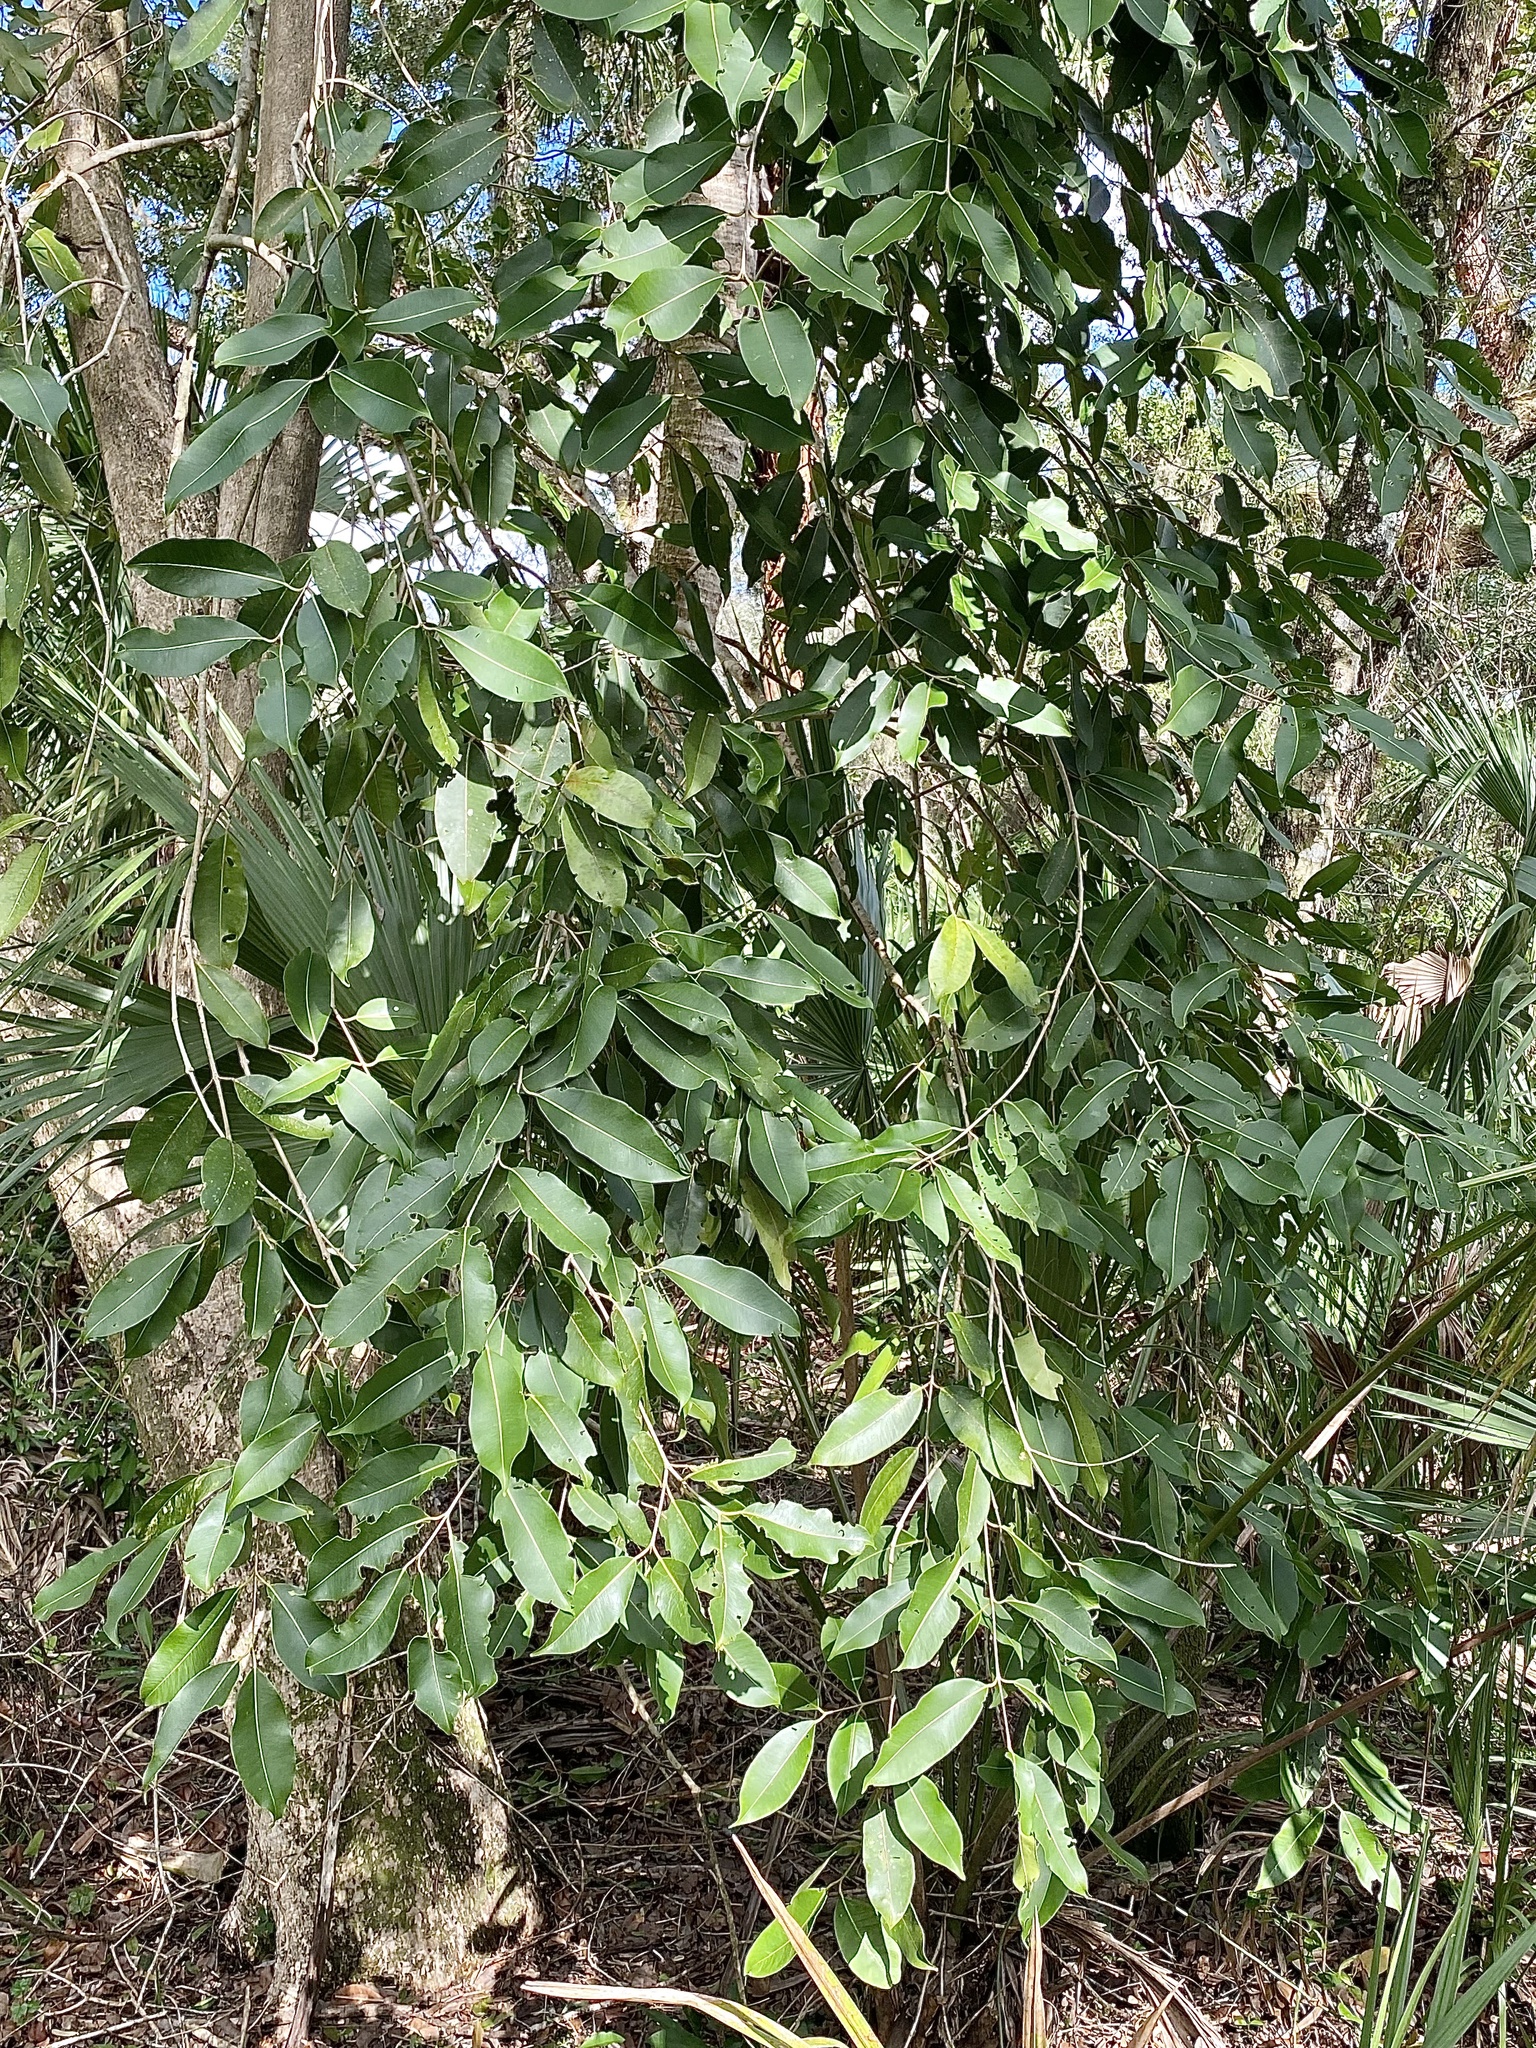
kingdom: Plantae
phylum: Tracheophyta
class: Magnoliopsida
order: Myrtales
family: Myrtaceae
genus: Syzygium
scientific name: Syzygium cumini
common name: Java plum
